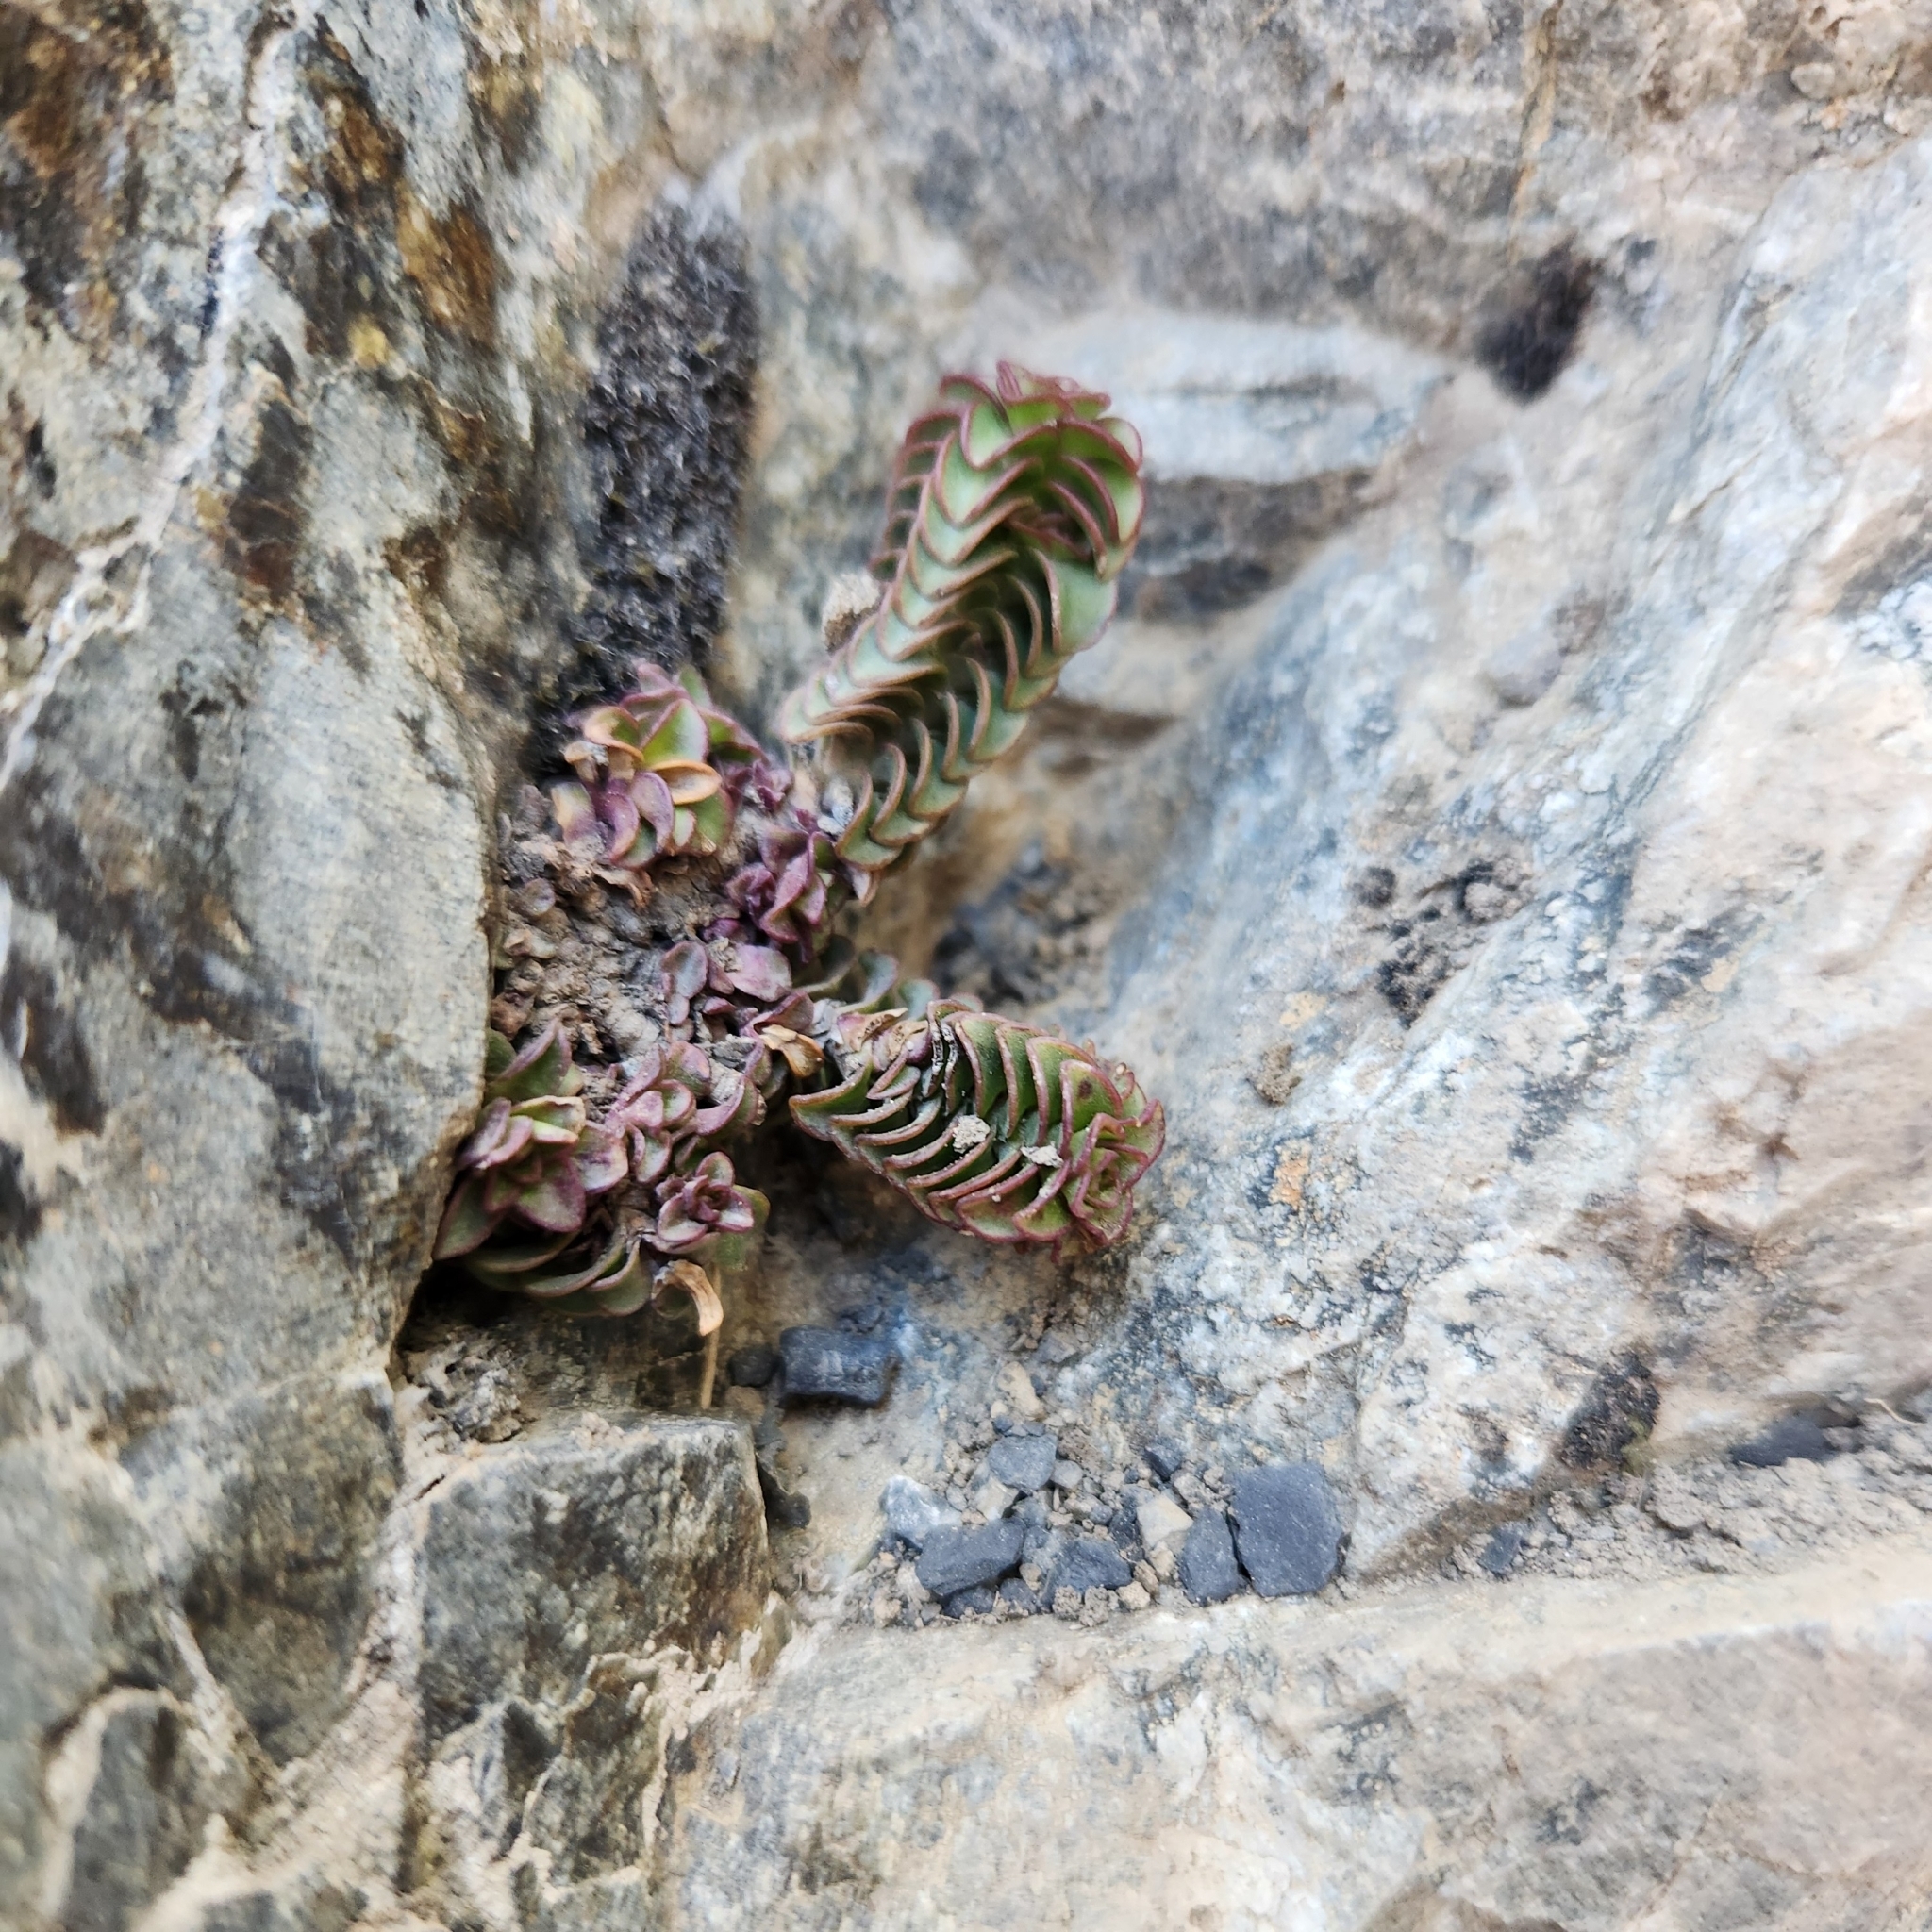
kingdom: Plantae
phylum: Tracheophyta
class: Magnoliopsida
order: Lamiales
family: Plantaginaceae
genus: Veronica
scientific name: Veronica epacridea
